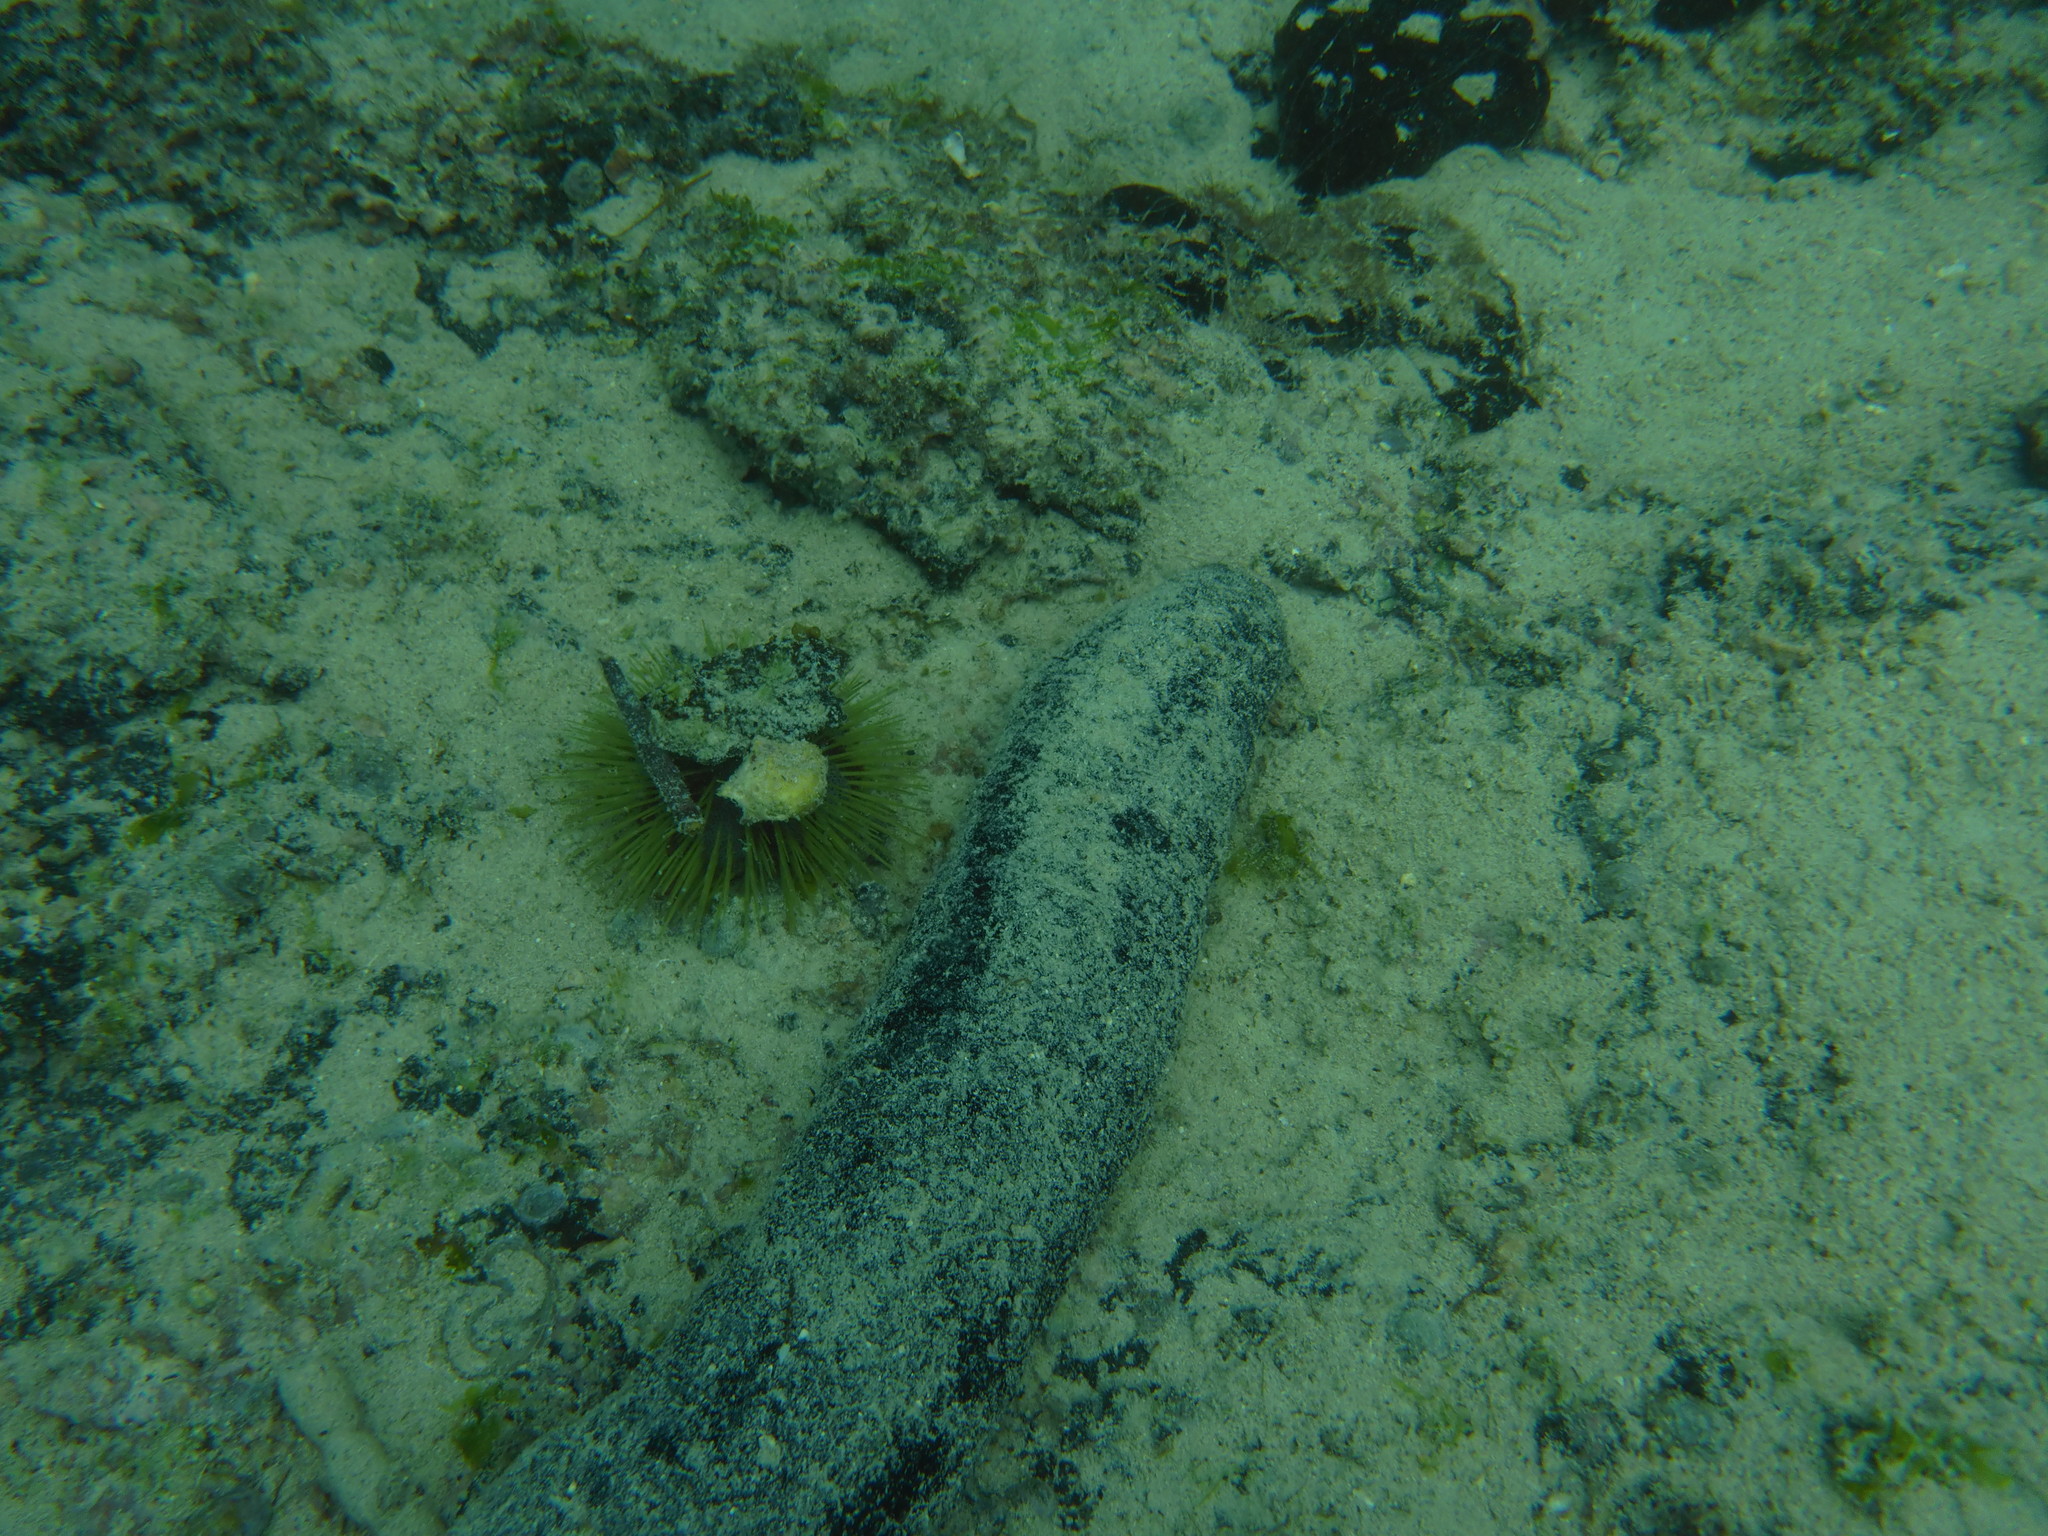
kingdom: Animalia
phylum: Echinodermata
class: Holothuroidea
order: Holothuriida
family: Holothuriidae
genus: Holothuria
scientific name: Holothuria atra
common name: Lollyfish
